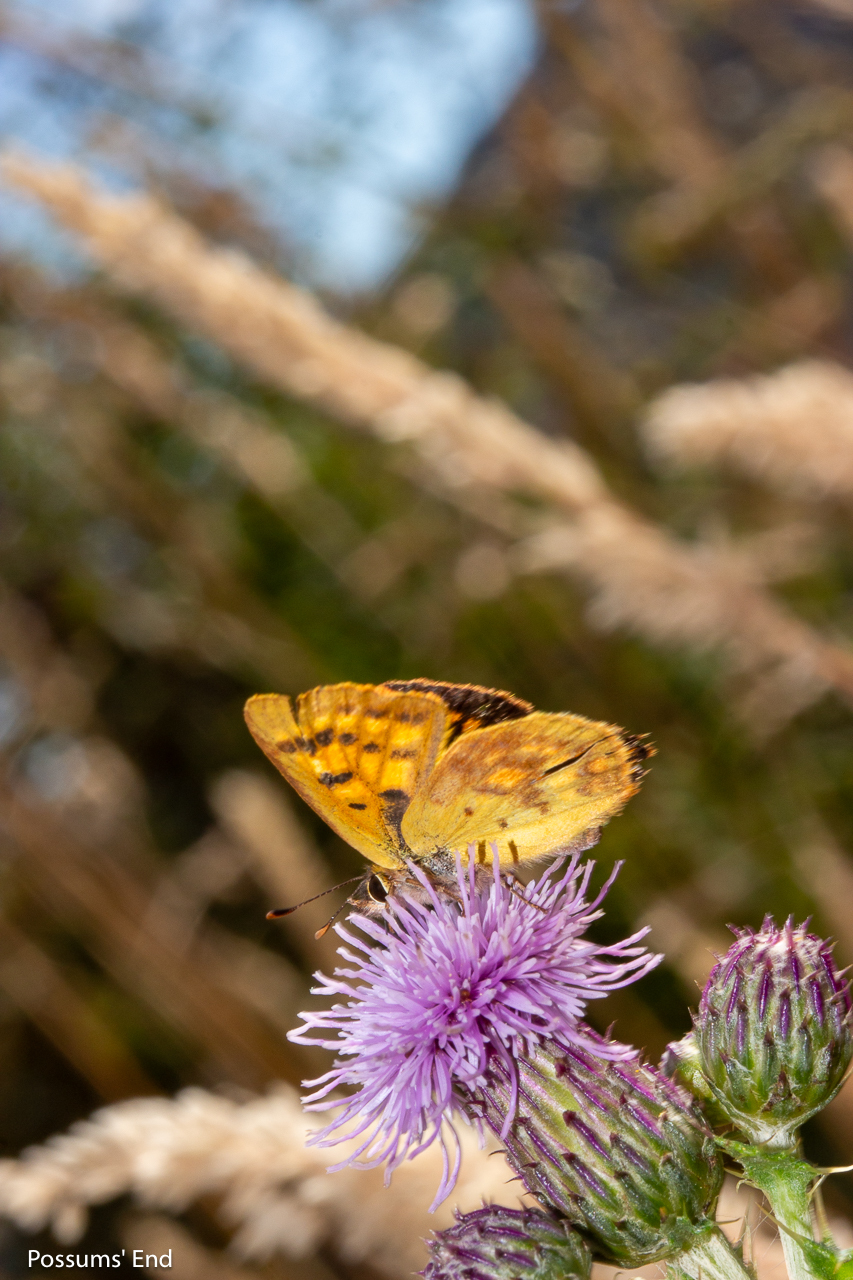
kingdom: Animalia
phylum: Arthropoda
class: Insecta
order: Lepidoptera
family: Lycaenidae
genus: Lycaena
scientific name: Lycaena feredayi
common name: Glade copper
